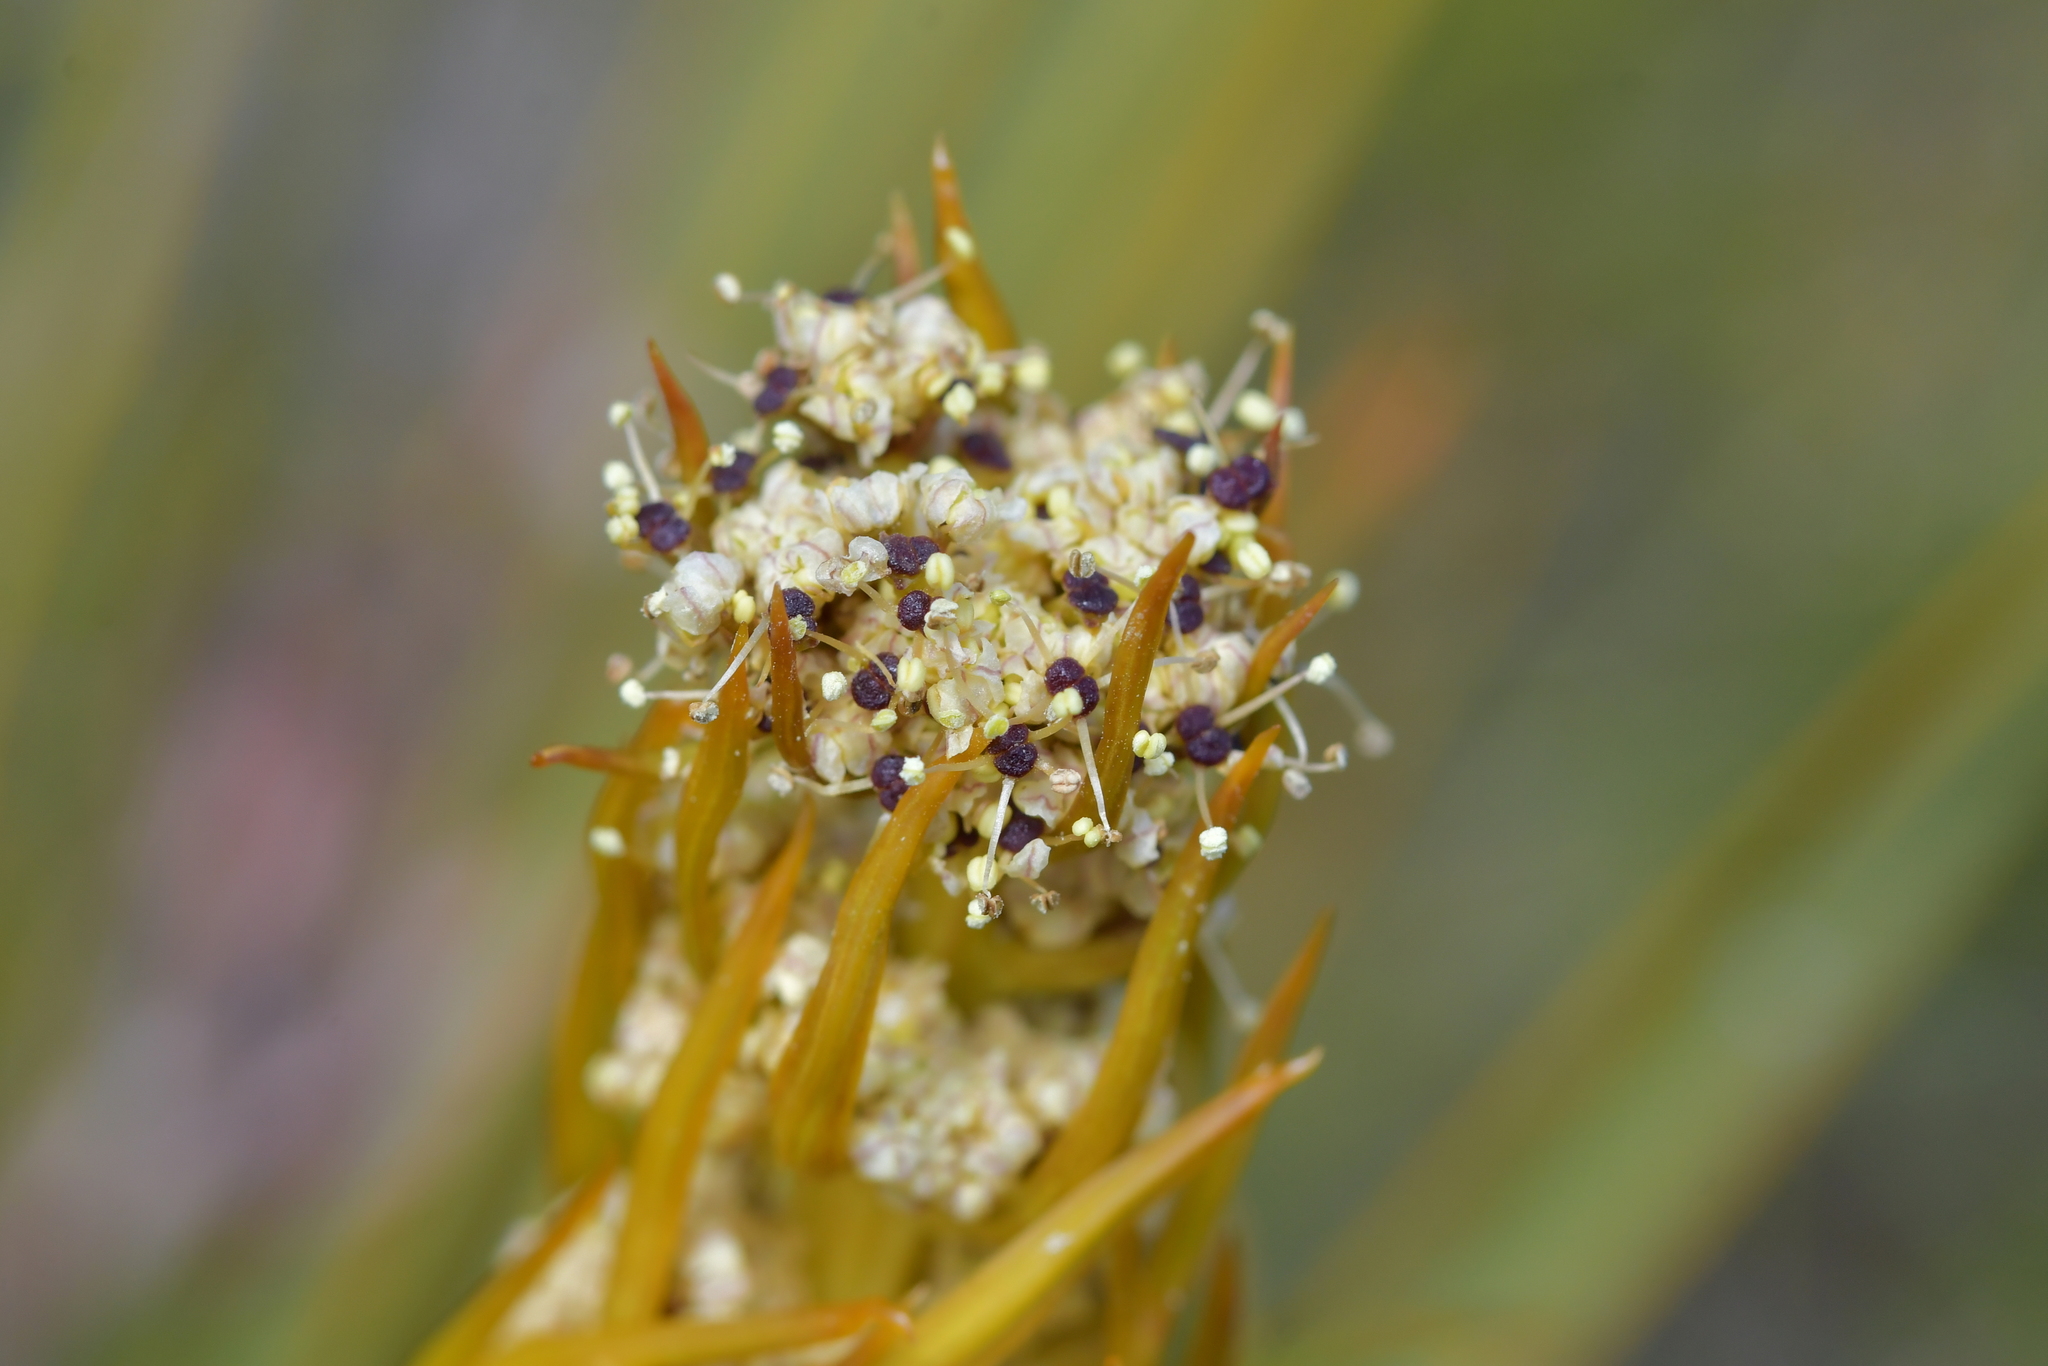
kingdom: Plantae
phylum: Tracheophyta
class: Magnoliopsida
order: Apiales
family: Apiaceae
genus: Aciphylla
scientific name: Aciphylla aurea
